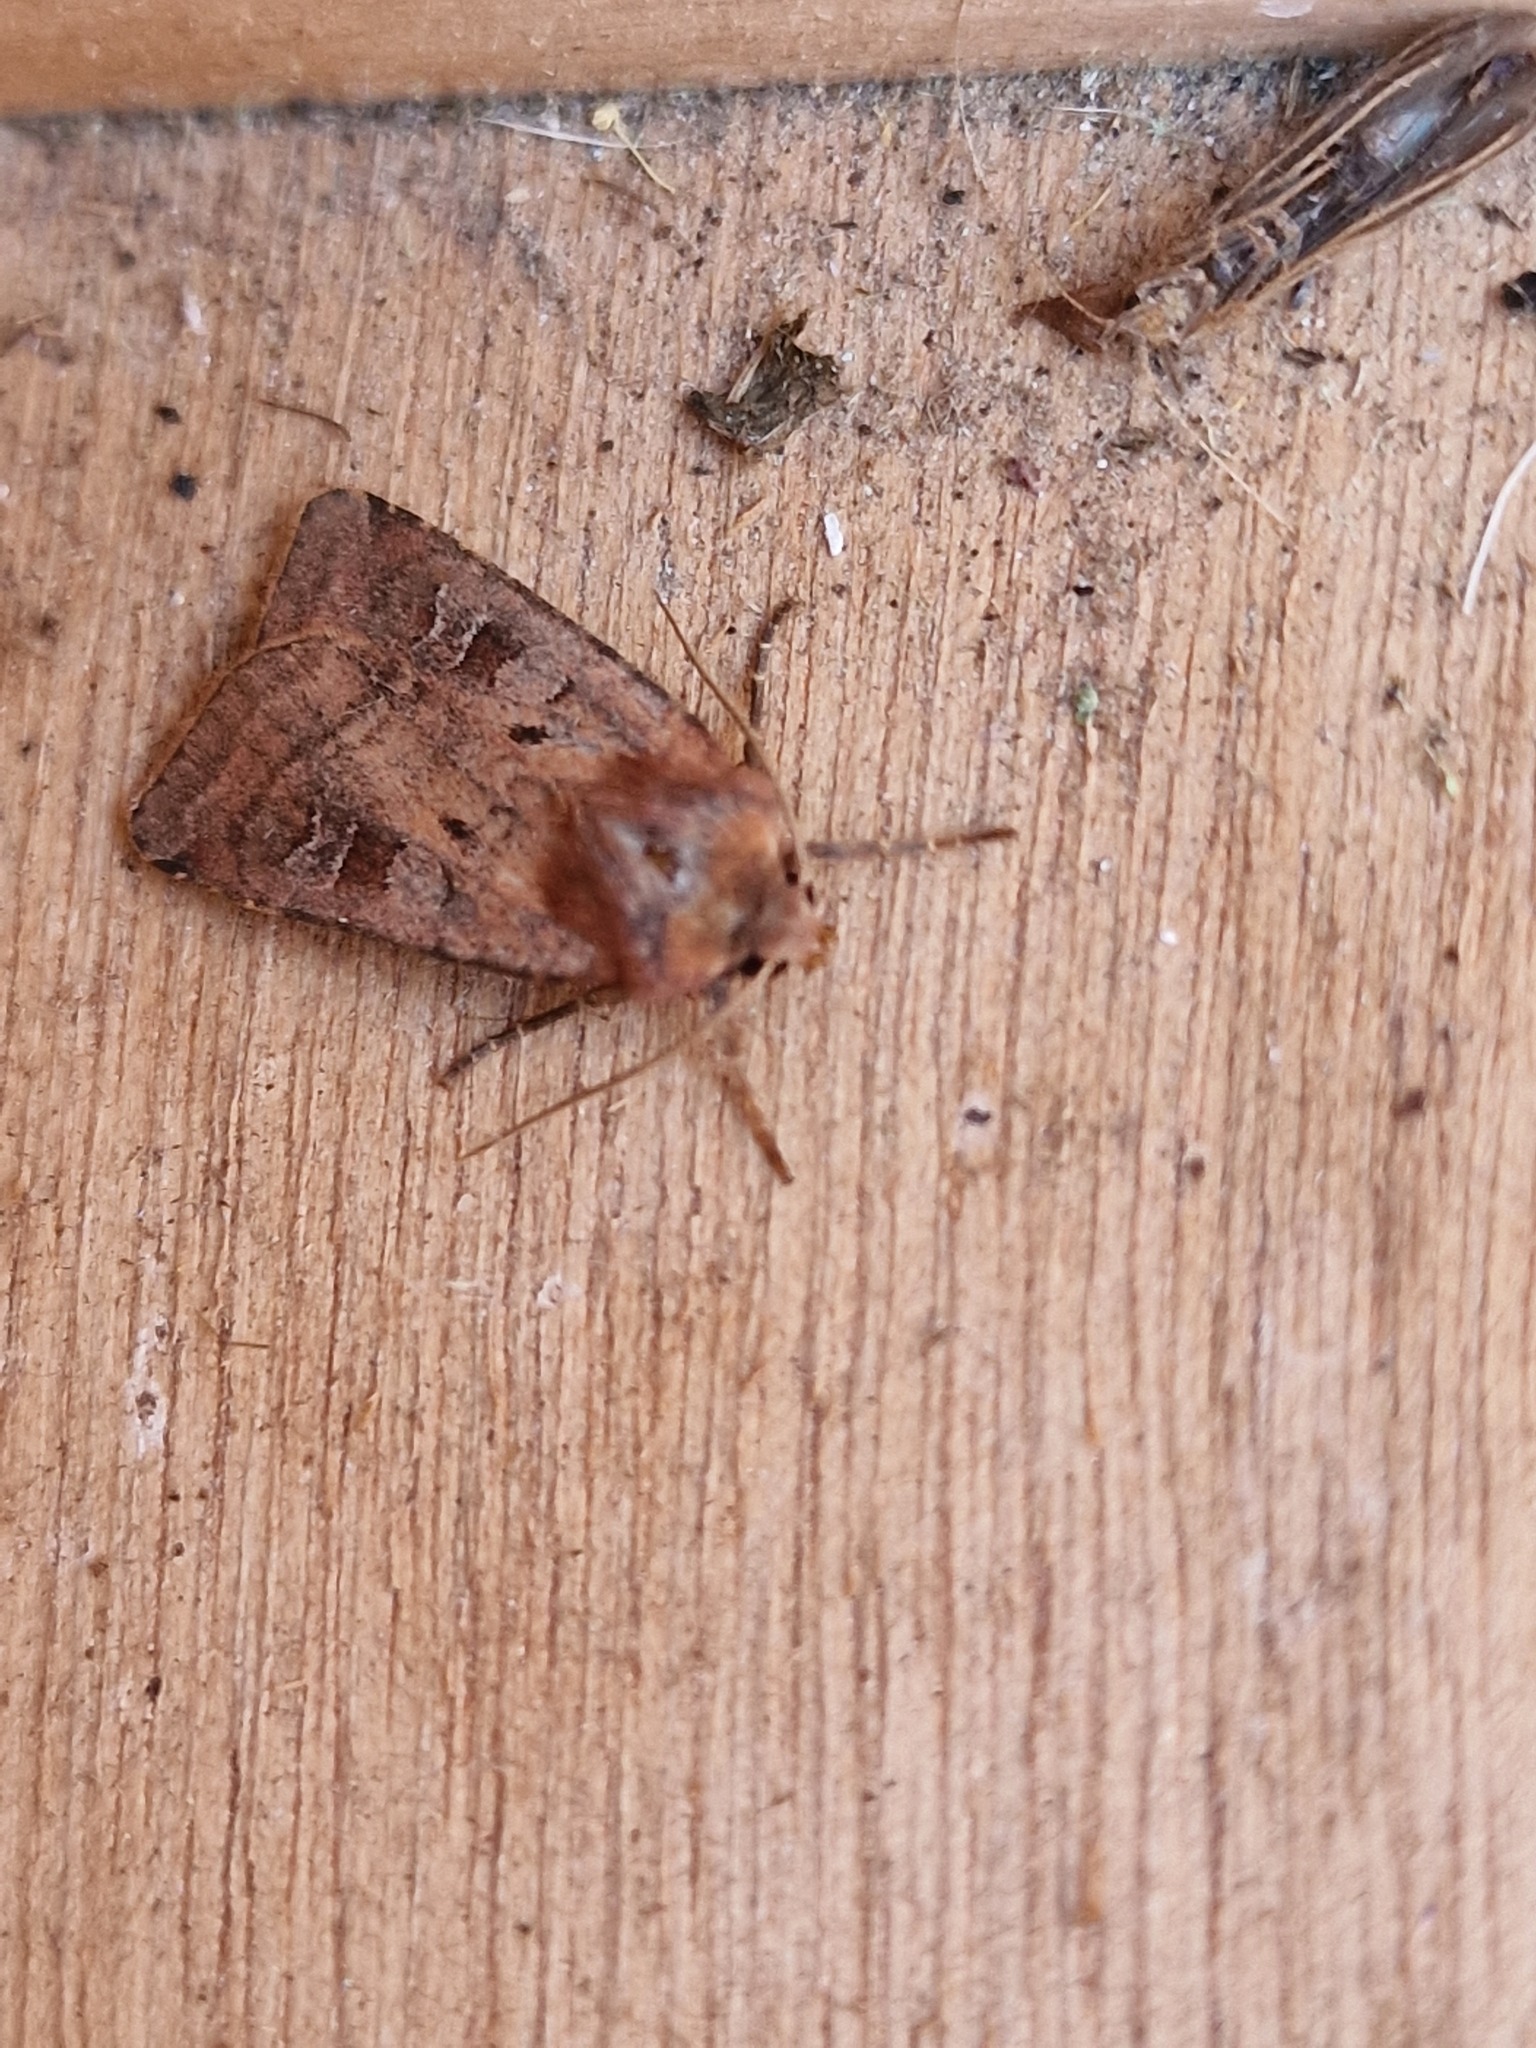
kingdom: Animalia
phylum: Arthropoda
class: Insecta
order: Lepidoptera
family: Noctuidae
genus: Diarsia
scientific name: Diarsia rubi
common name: Small square-spot
